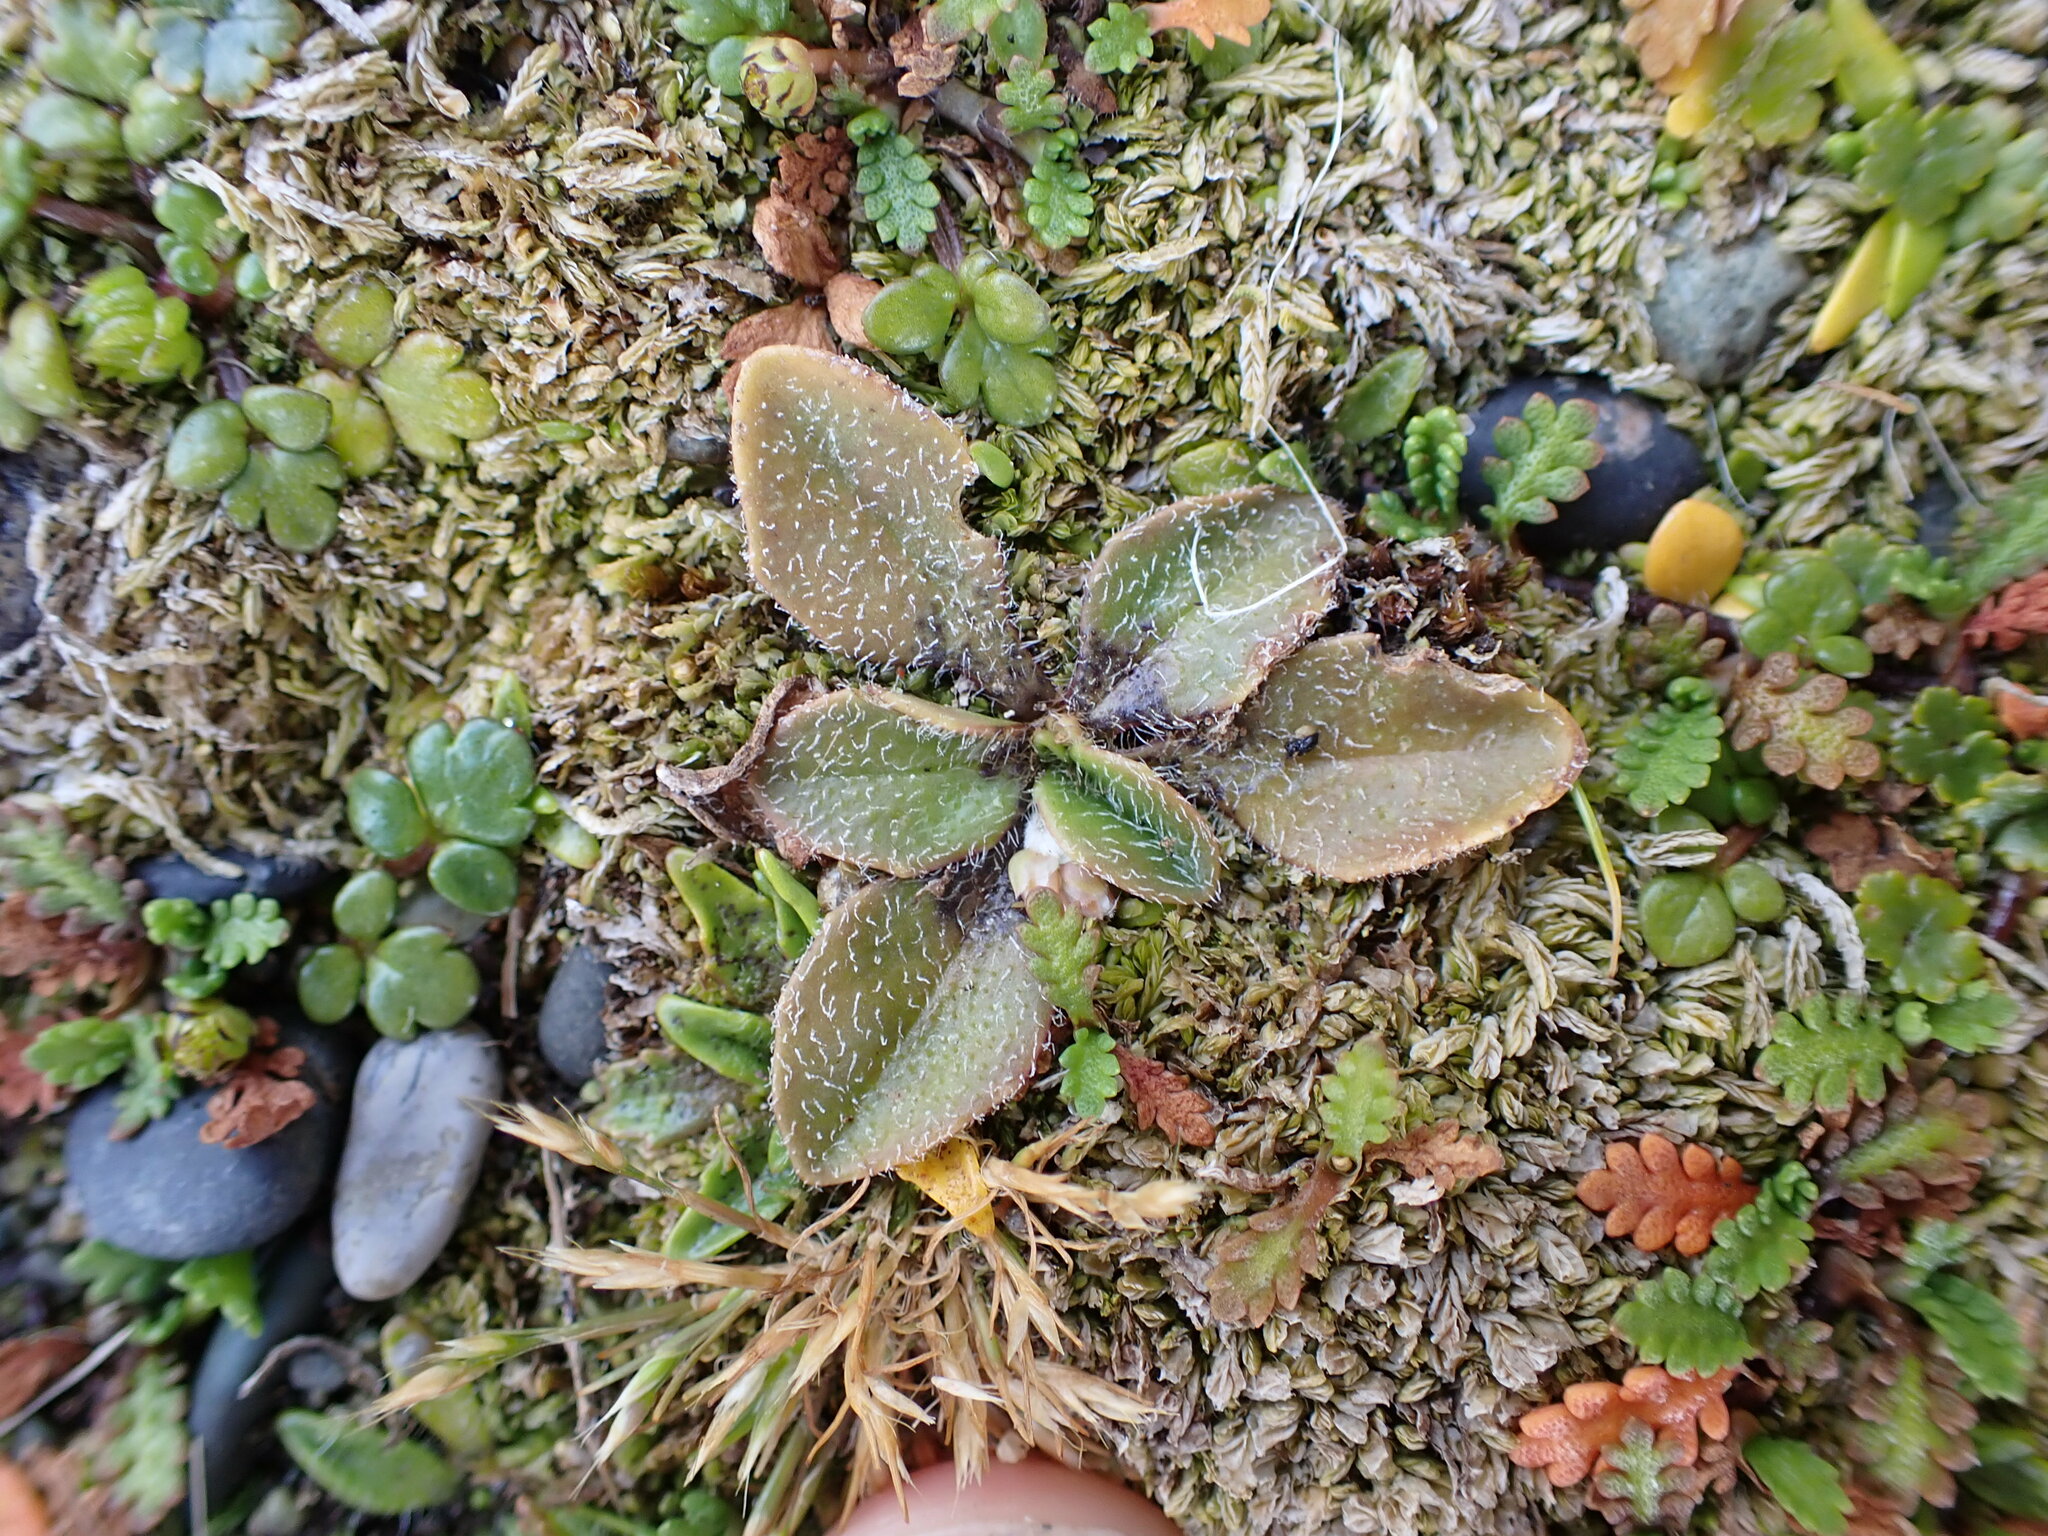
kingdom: Plantae
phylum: Tracheophyta
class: Magnoliopsida
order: Lamiales
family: Plantaginaceae
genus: Plantago
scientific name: Plantago raoulii
